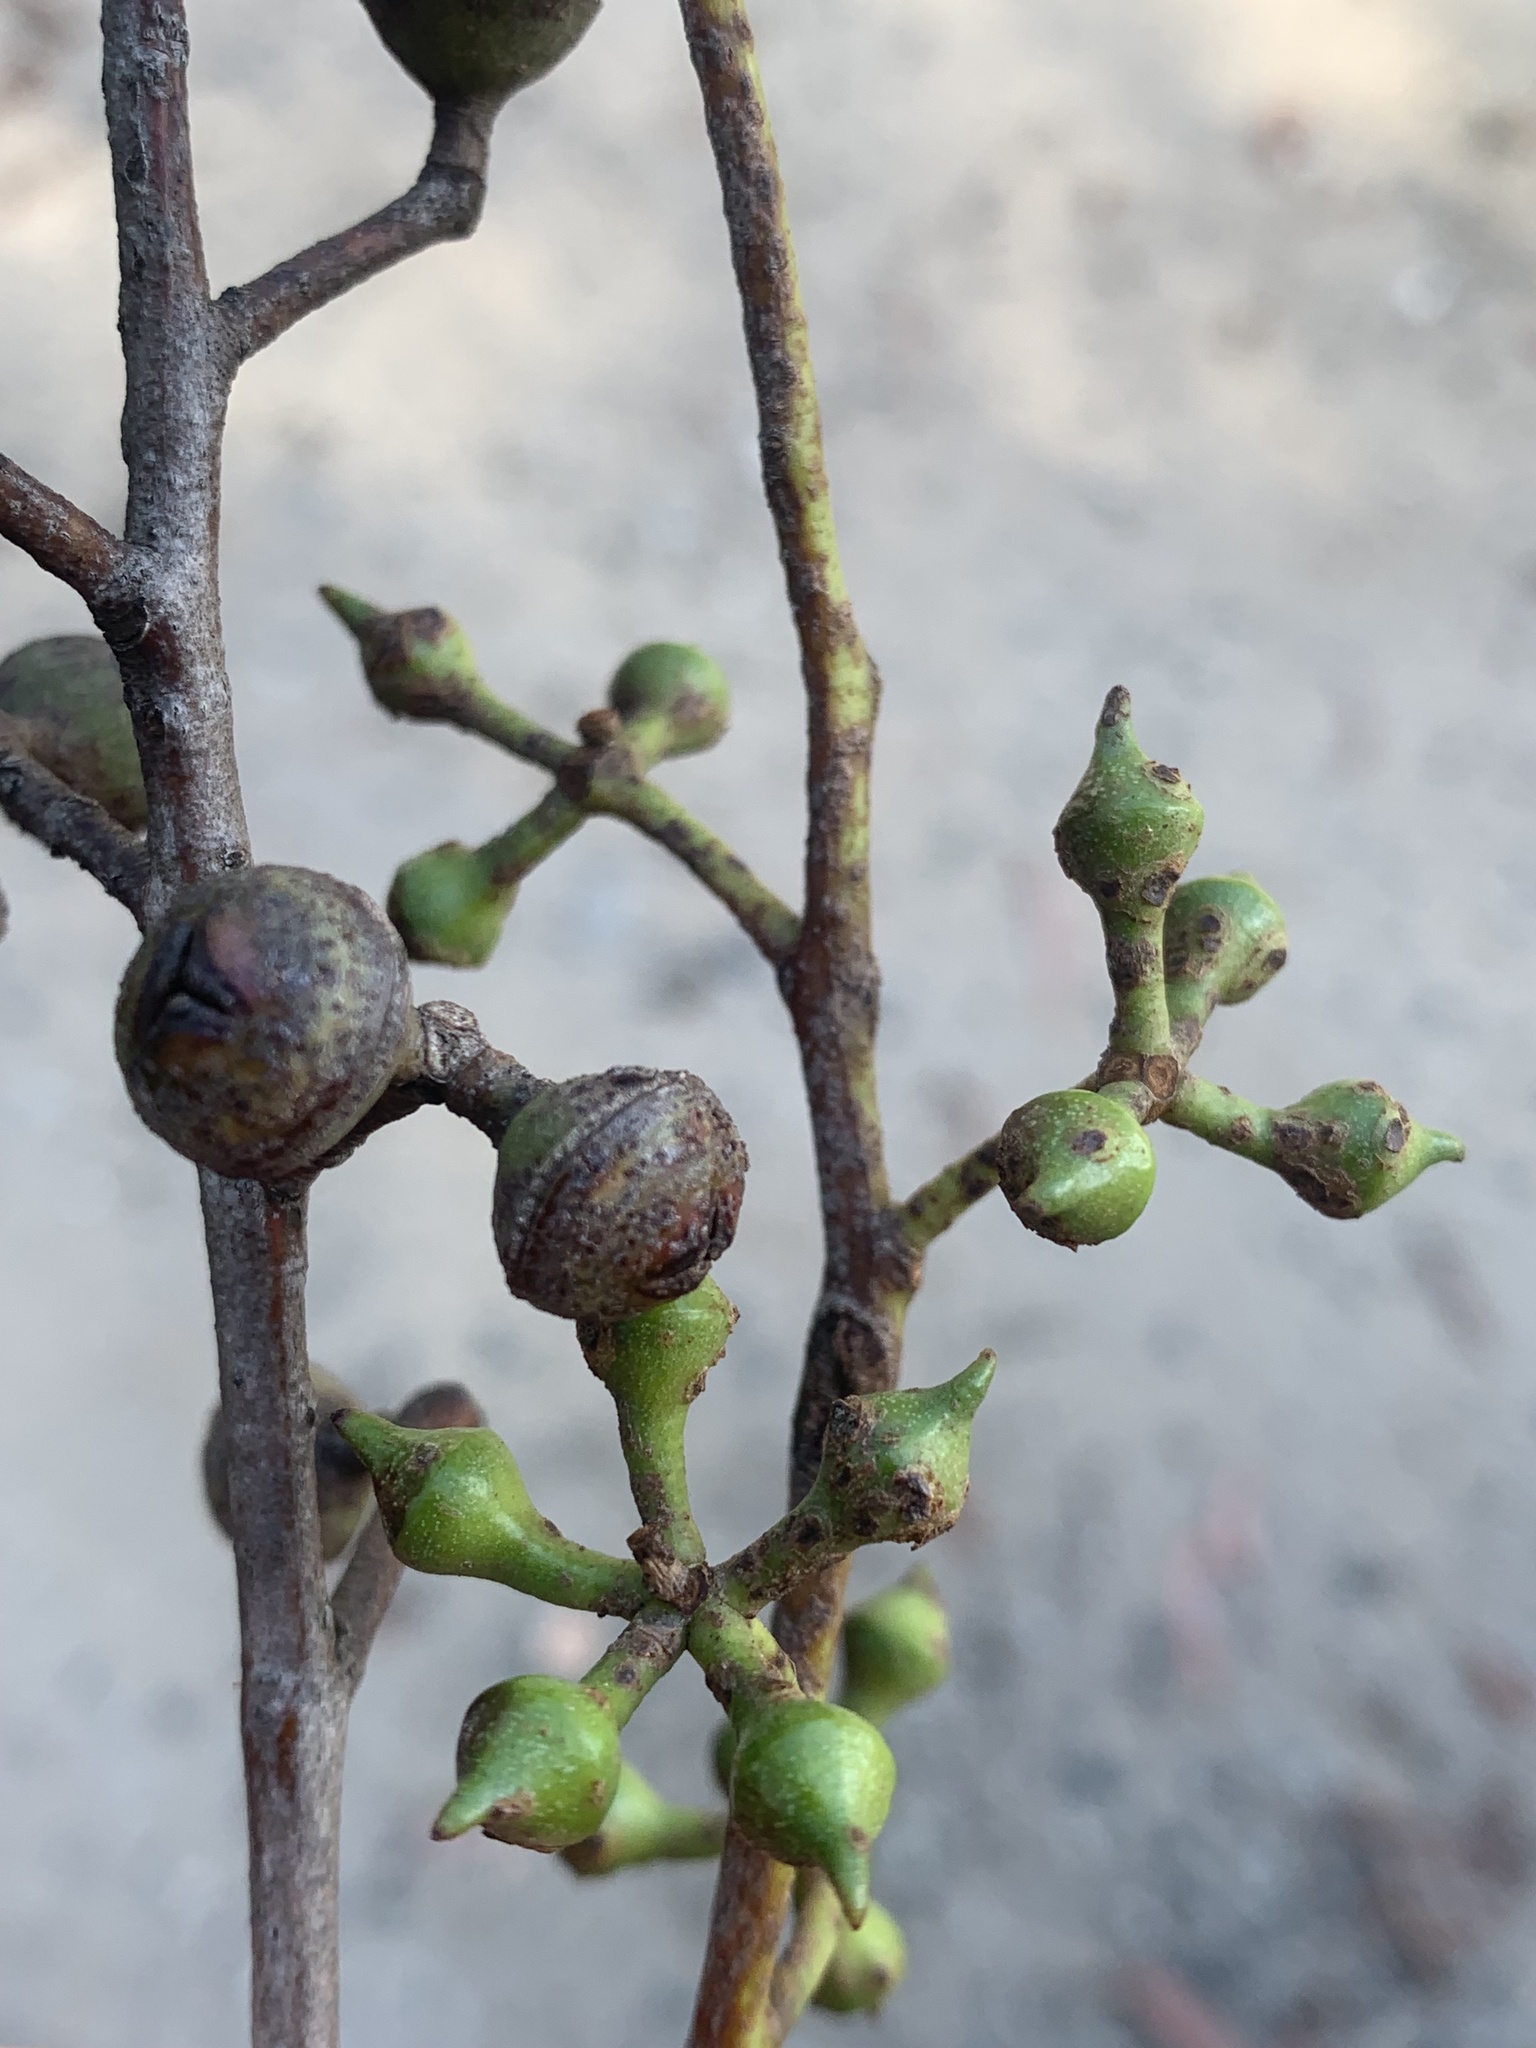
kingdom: Plantae
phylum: Tracheophyta
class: Magnoliopsida
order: Myrtales
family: Myrtaceae
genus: Eucalyptus
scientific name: Eucalyptus macrorhyncha
